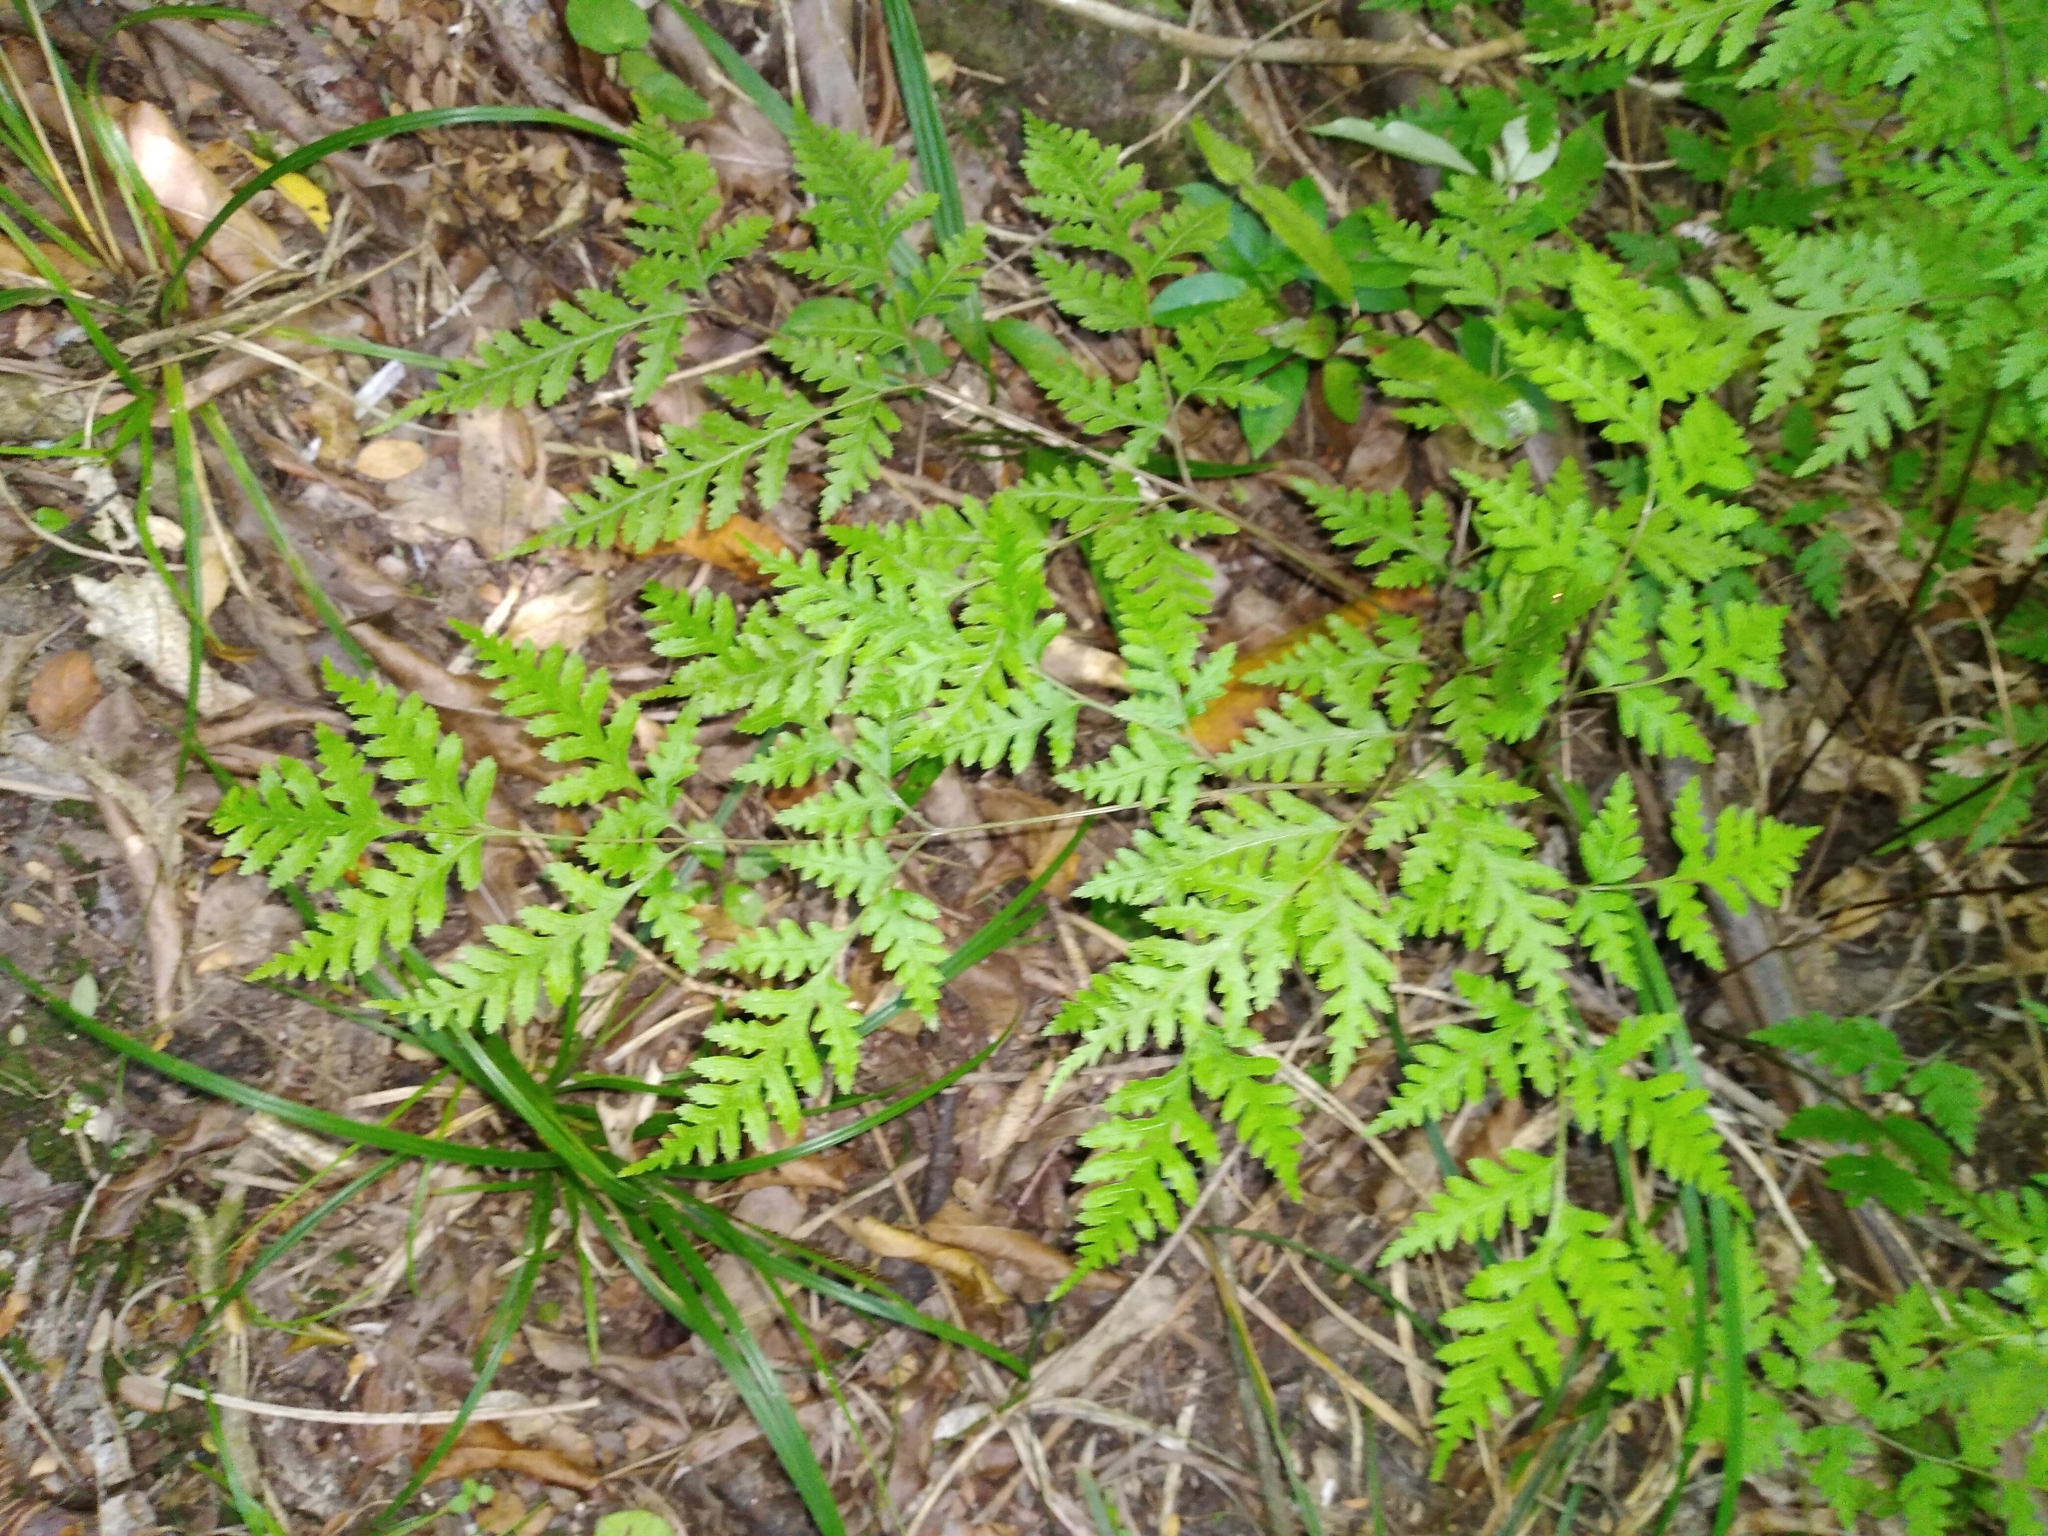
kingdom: Plantae
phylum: Tracheophyta
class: Polypodiopsida
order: Polypodiales
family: Pteridaceae
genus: Pteris
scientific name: Pteris macilenta
